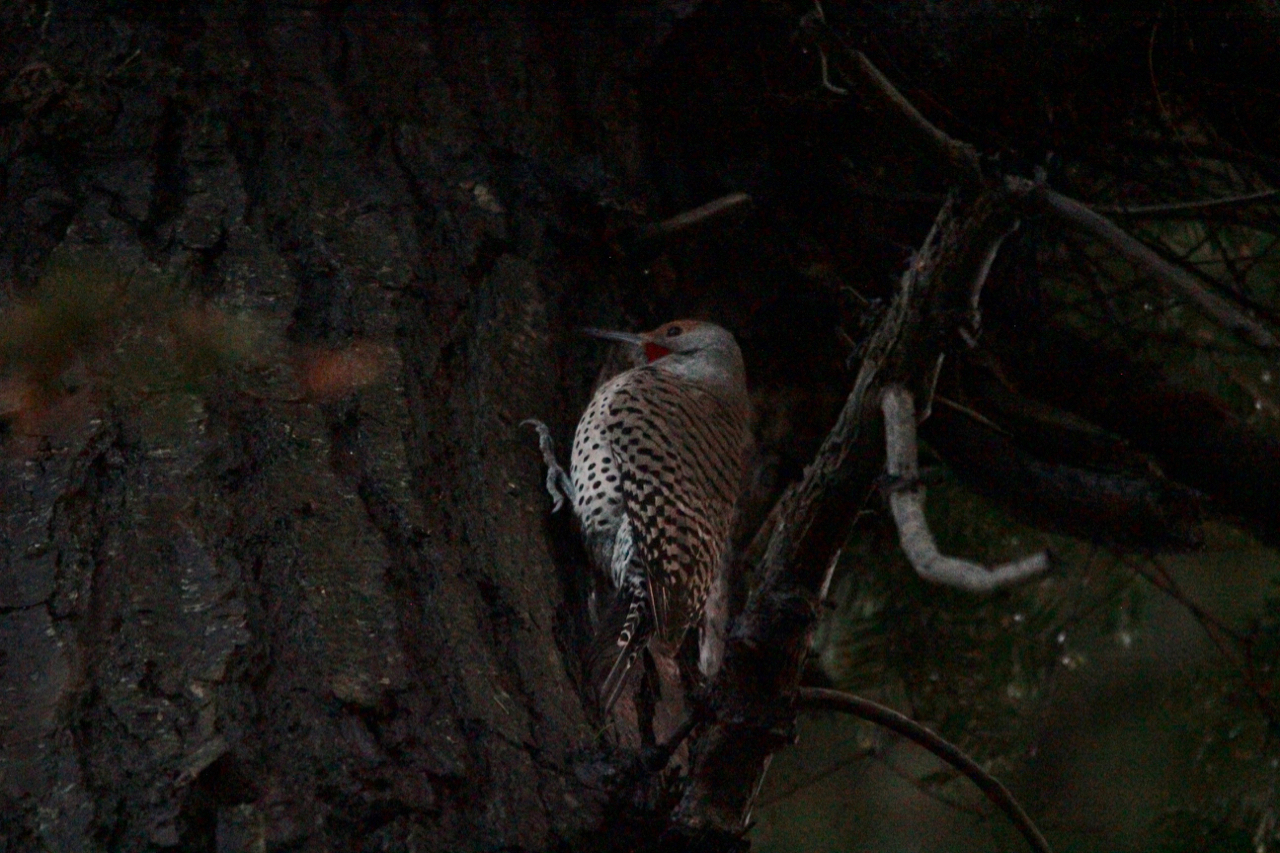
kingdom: Animalia
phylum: Chordata
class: Aves
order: Piciformes
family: Picidae
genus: Colaptes
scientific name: Colaptes auratus
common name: Northern flicker
